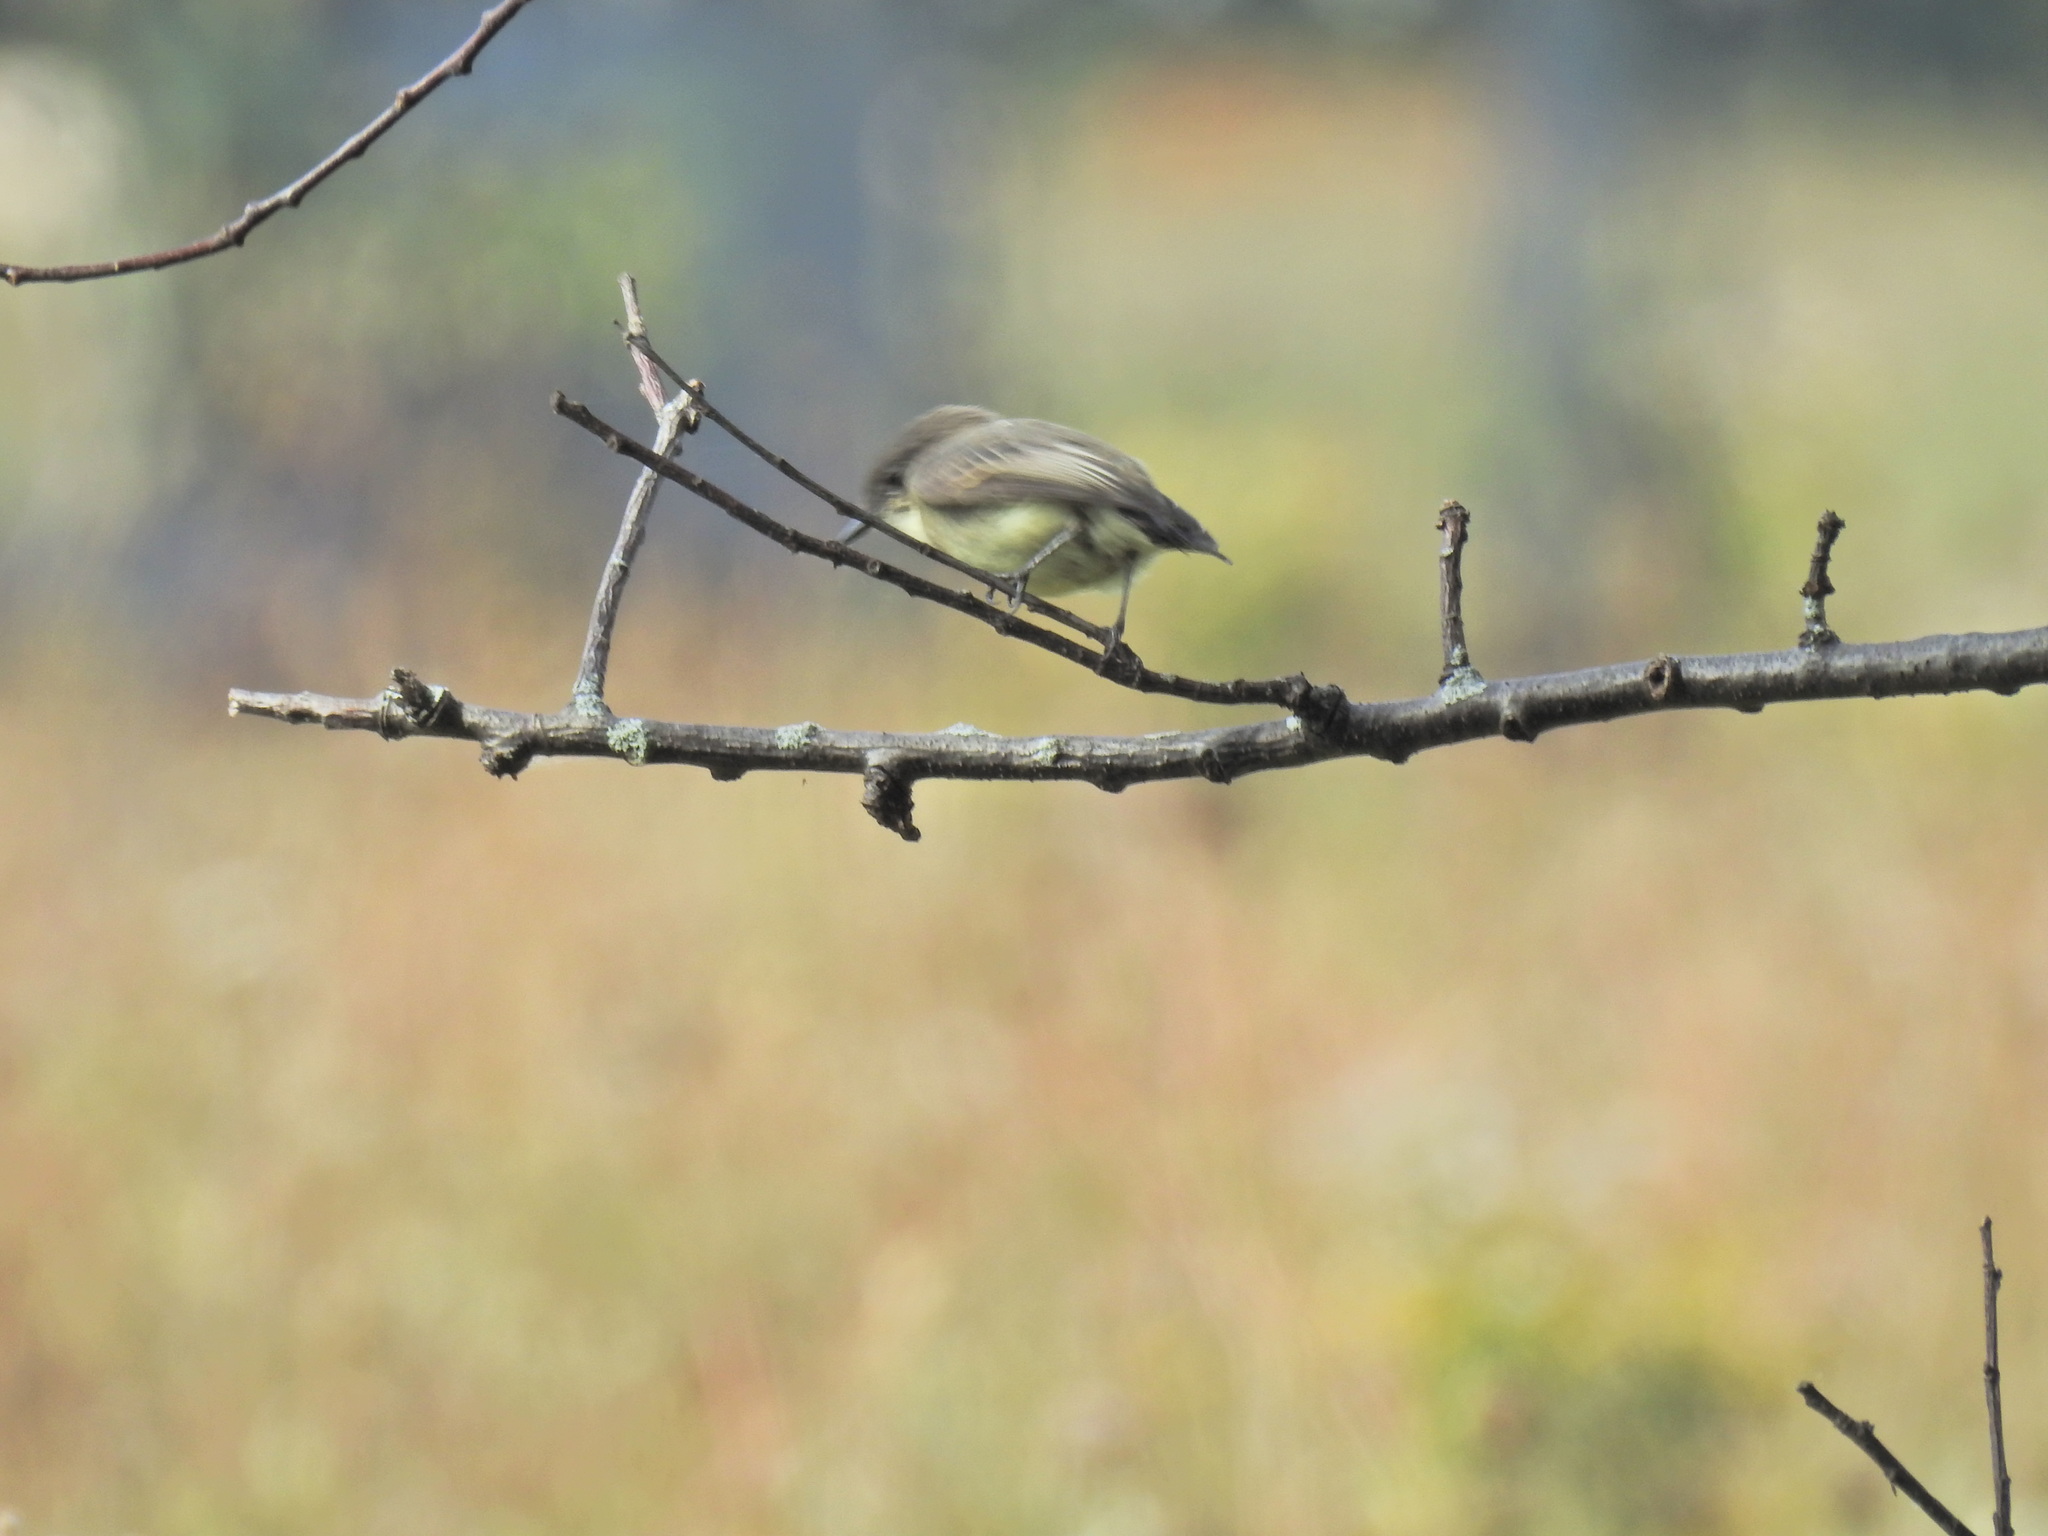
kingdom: Animalia
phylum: Chordata
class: Aves
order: Passeriformes
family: Tyrannidae
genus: Sayornis
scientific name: Sayornis phoebe
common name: Eastern phoebe
